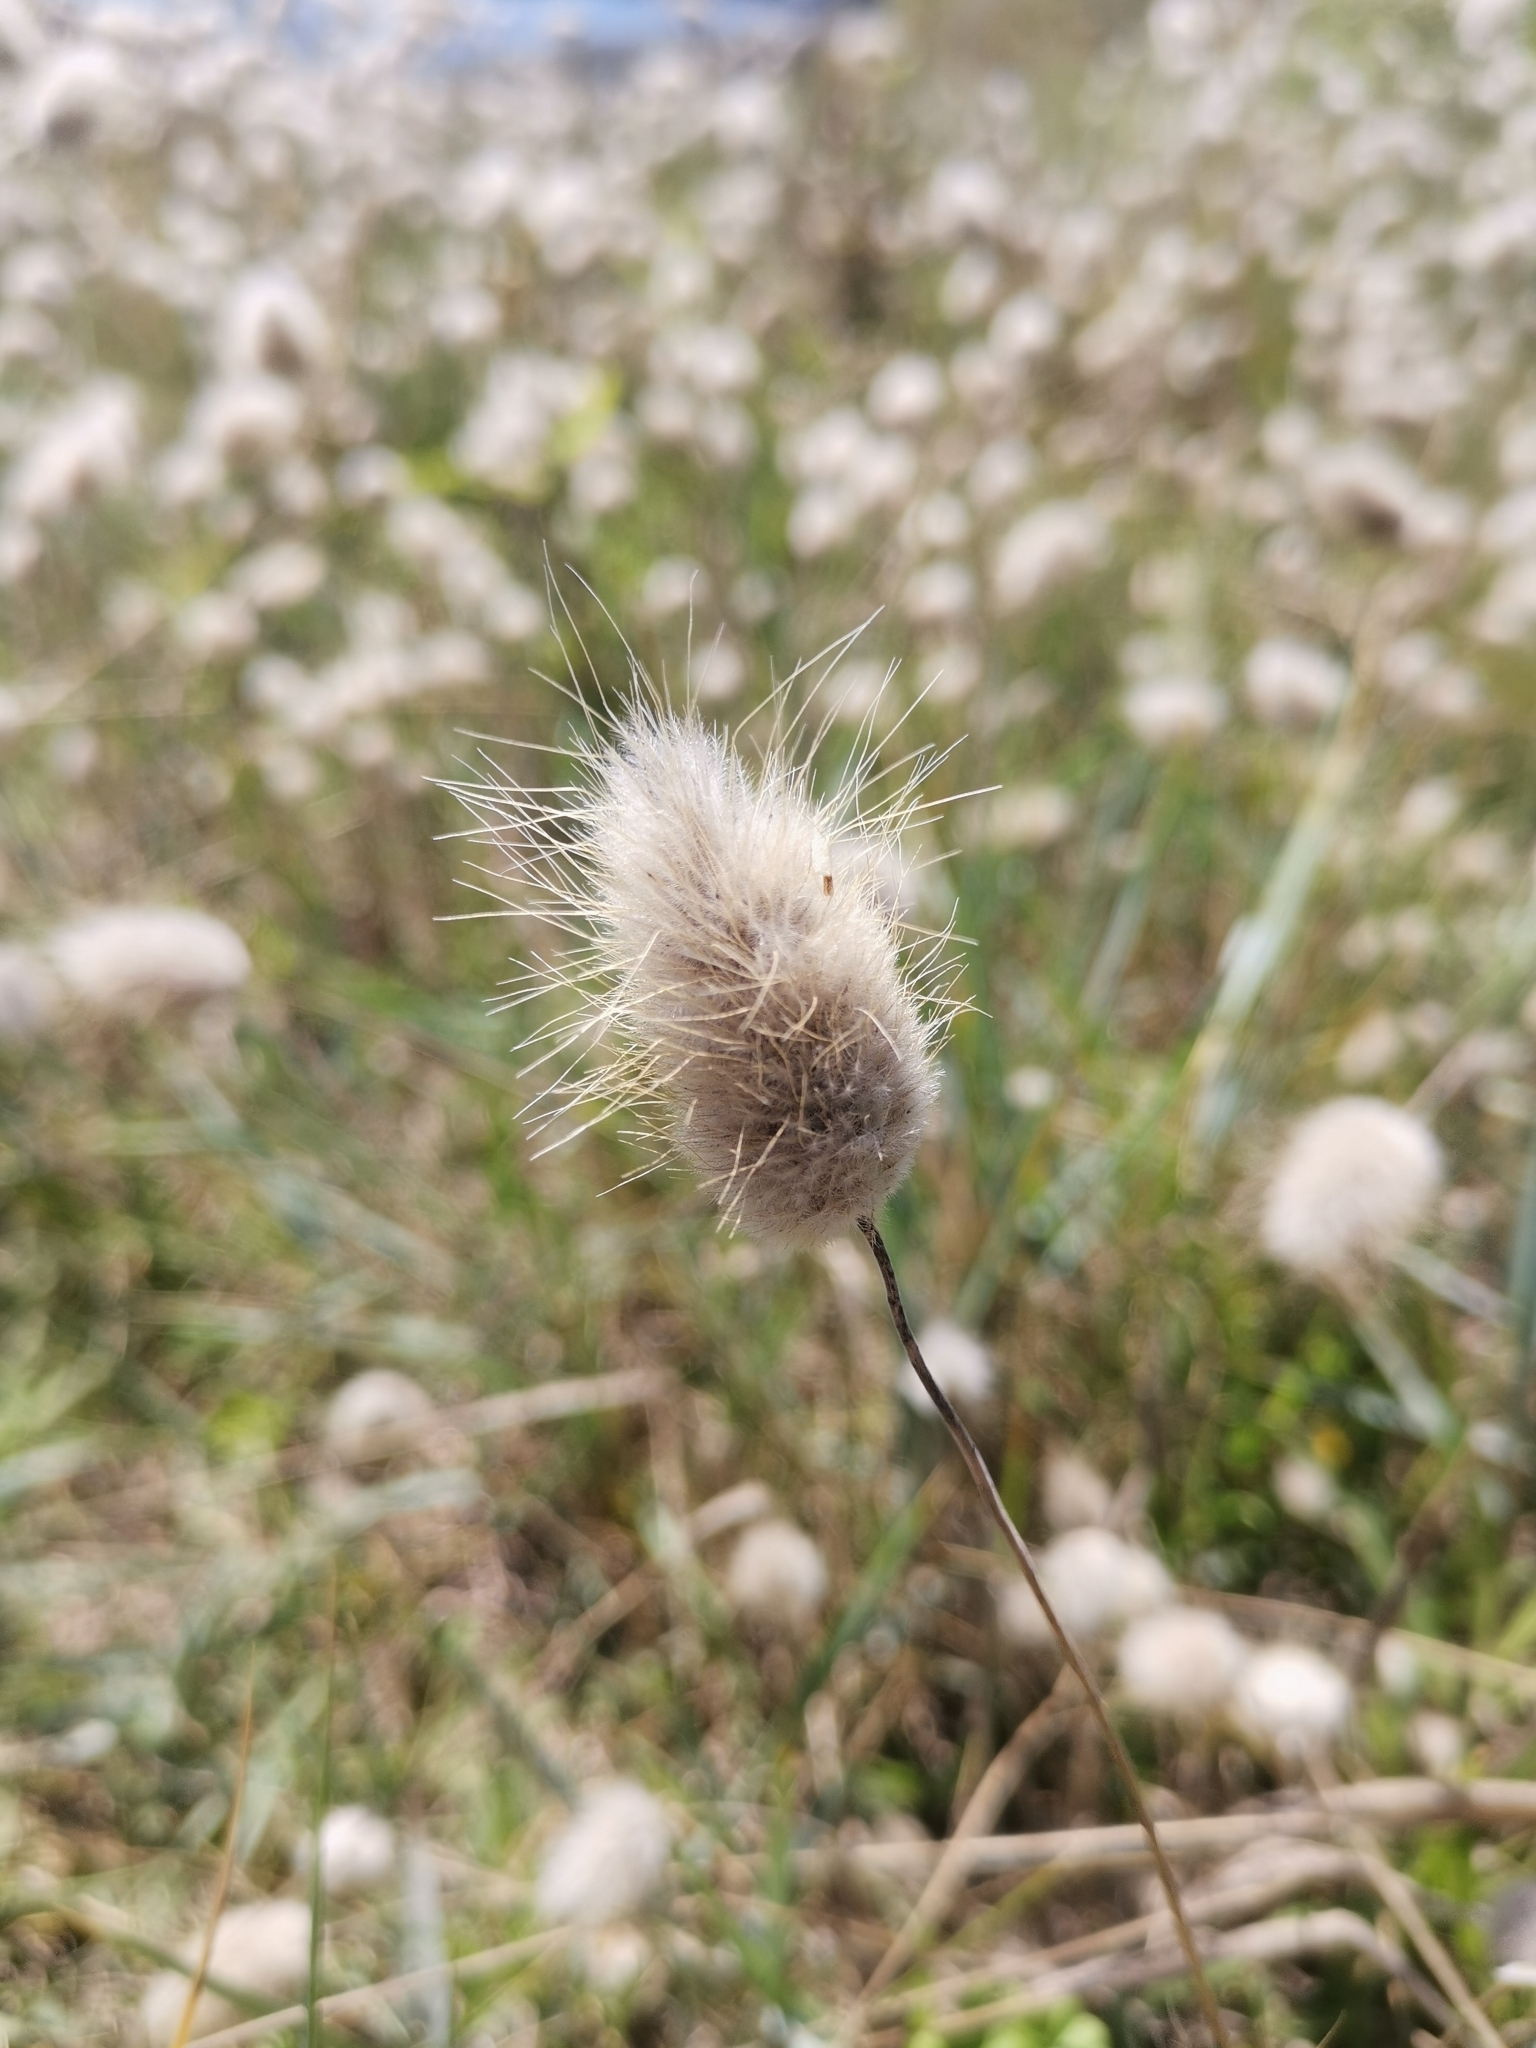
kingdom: Plantae
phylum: Tracheophyta
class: Liliopsida
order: Poales
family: Poaceae
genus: Lagurus
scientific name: Lagurus ovatus
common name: Hare's-tail
